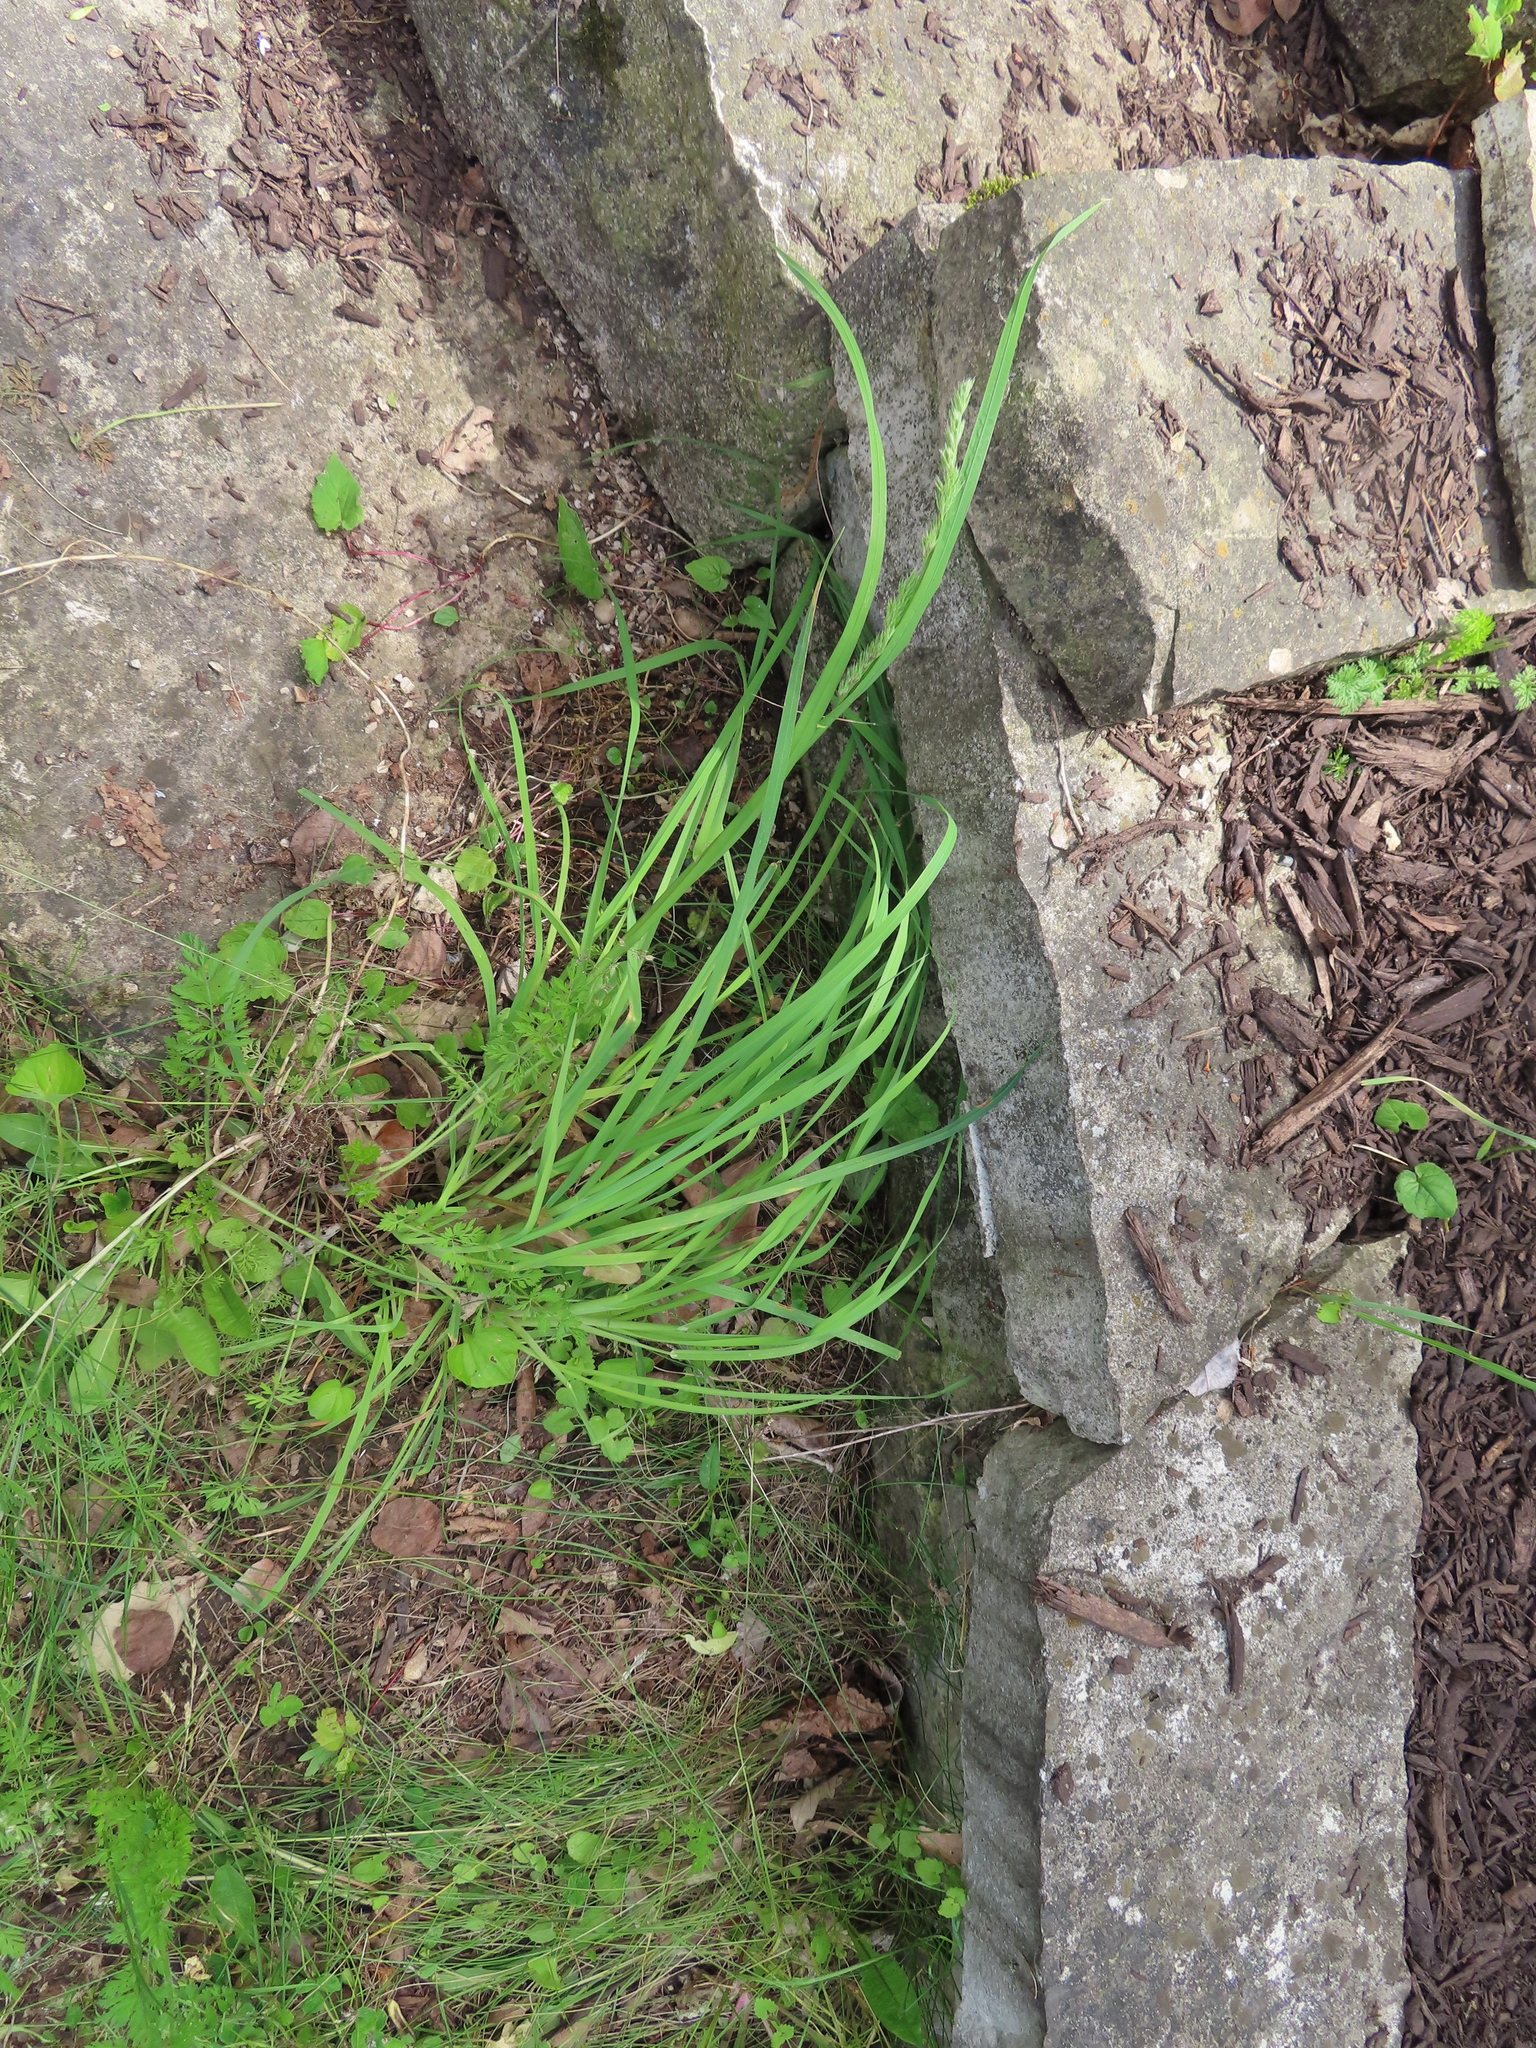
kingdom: Plantae
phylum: Tracheophyta
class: Liliopsida
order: Poales
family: Poaceae
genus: Dactylis
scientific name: Dactylis glomerata
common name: Orchardgrass
